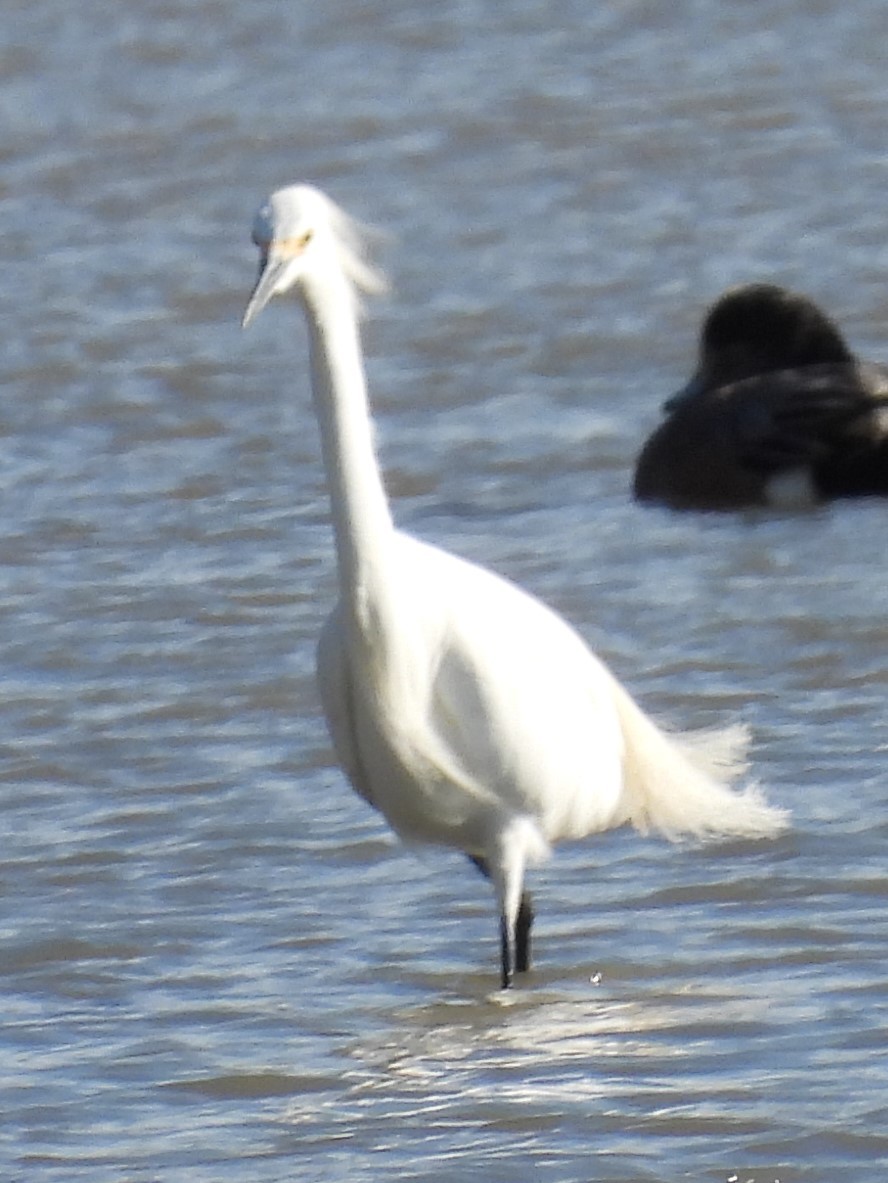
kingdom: Animalia
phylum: Chordata
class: Aves
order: Pelecaniformes
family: Ardeidae
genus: Egretta
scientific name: Egretta thula
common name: Snowy egret
